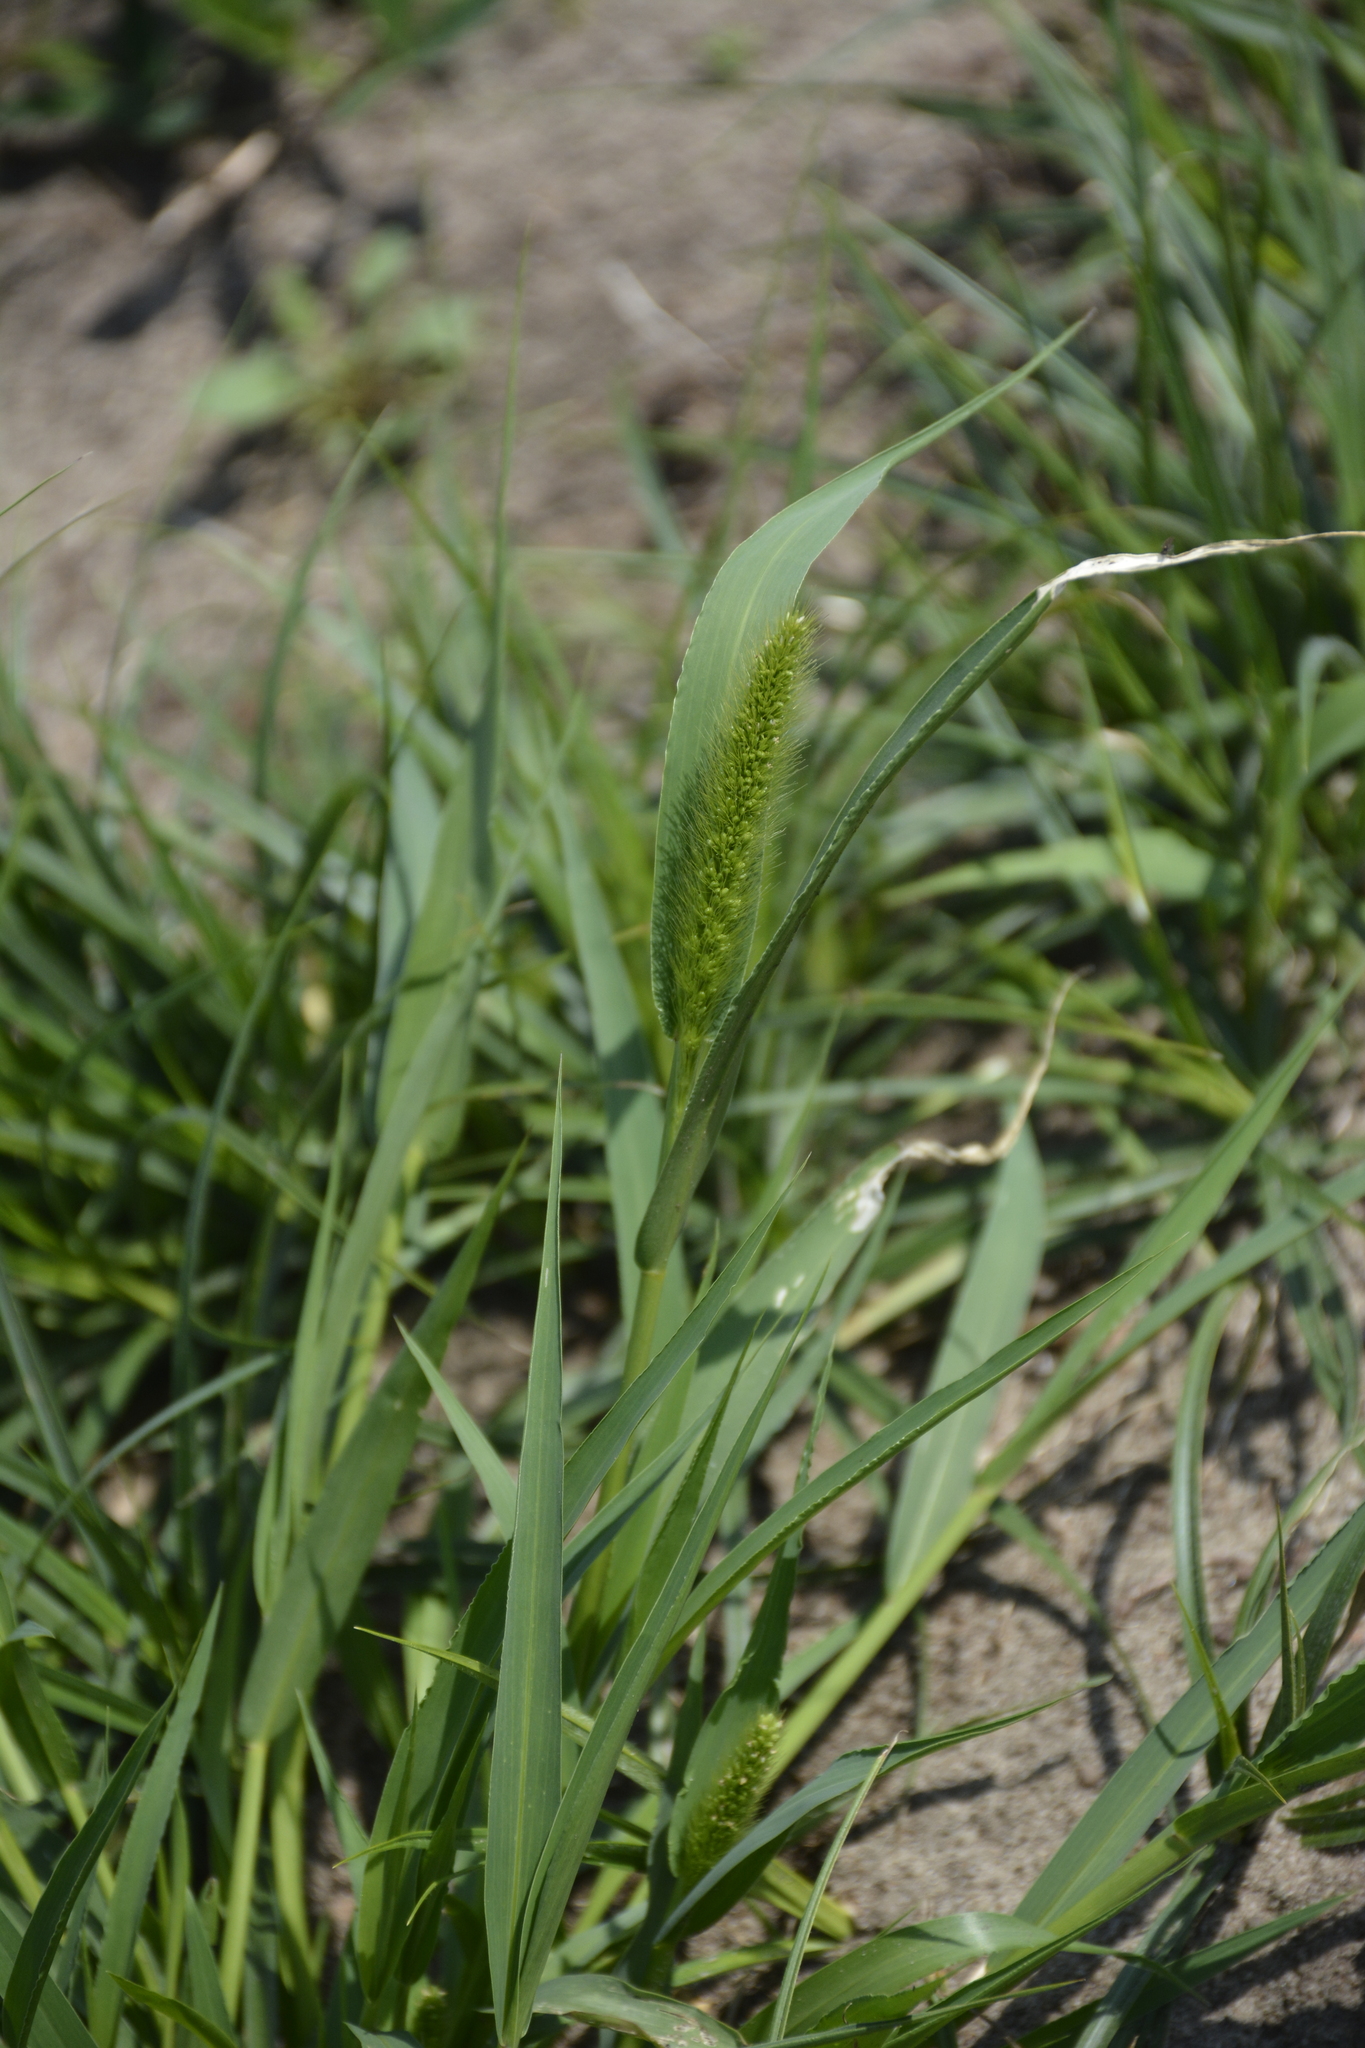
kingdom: Plantae
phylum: Tracheophyta
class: Liliopsida
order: Poales
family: Poaceae
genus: Setaria
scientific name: Setaria viridis
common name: Green bristlegrass
